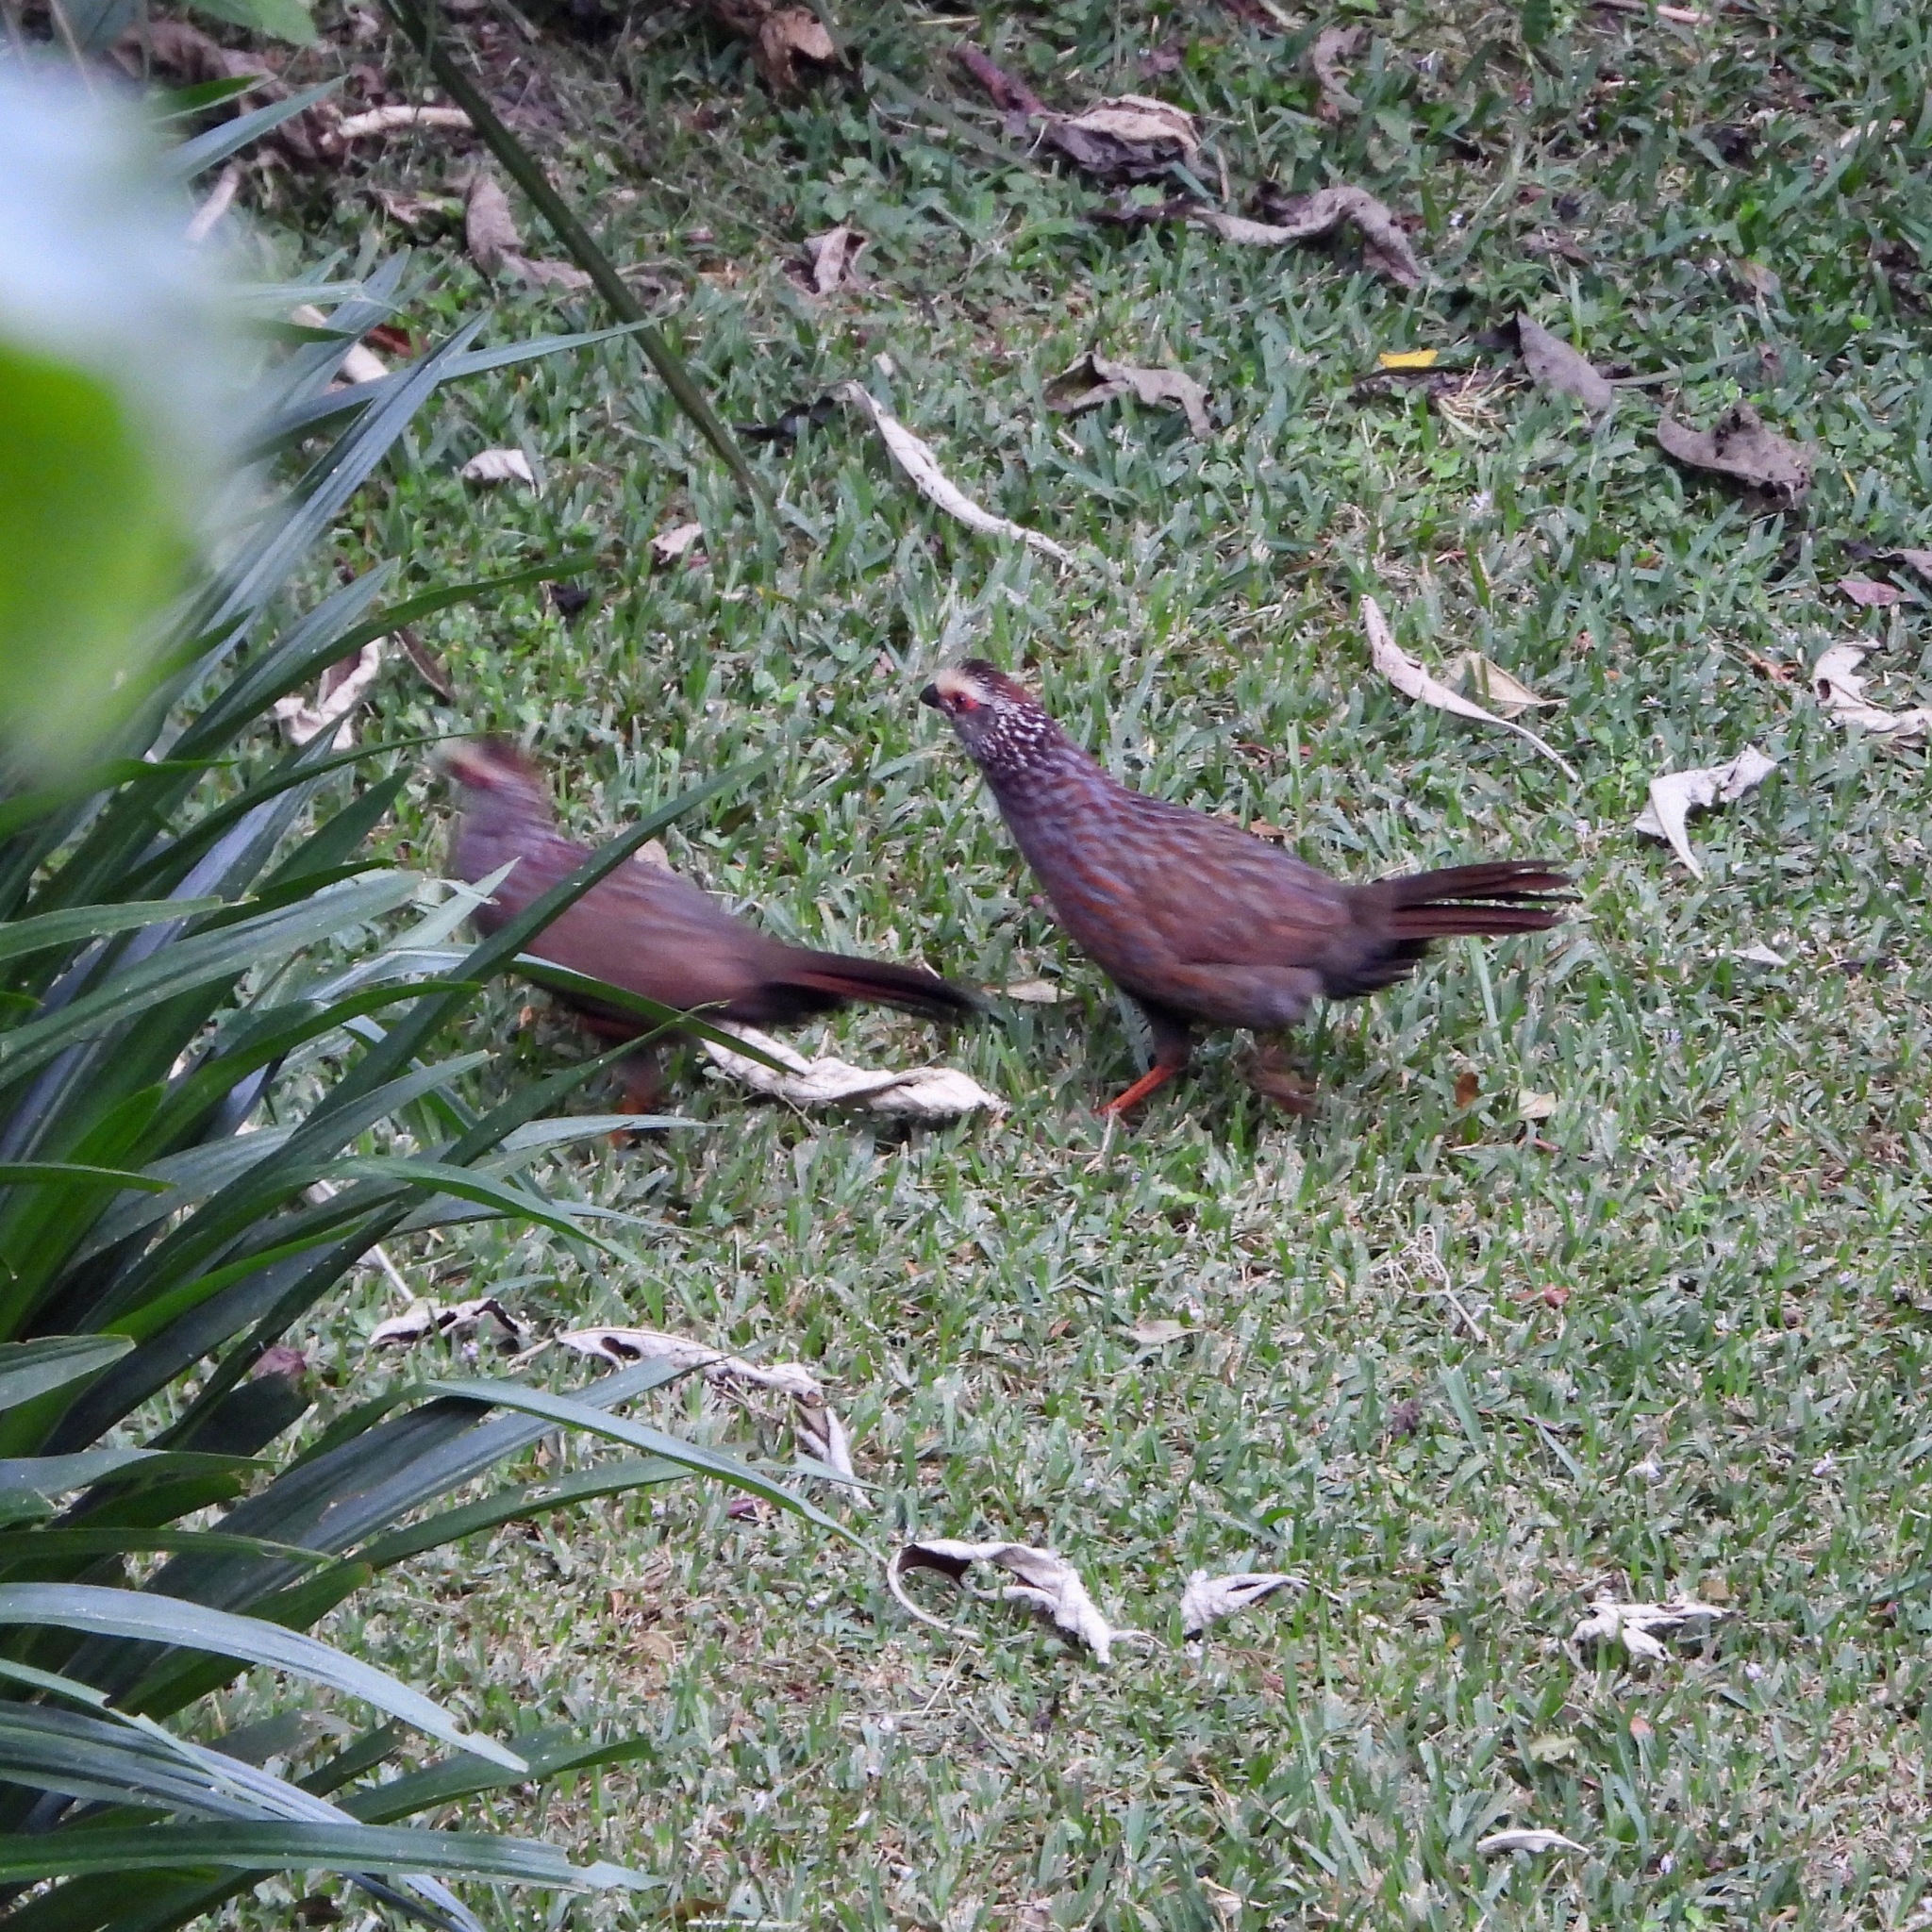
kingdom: Animalia
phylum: Chordata
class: Aves
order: Galliformes
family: Odontophoridae
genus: Dendrortyx
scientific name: Dendrortyx leucophrys
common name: Buffy-crowned wood-partridge
